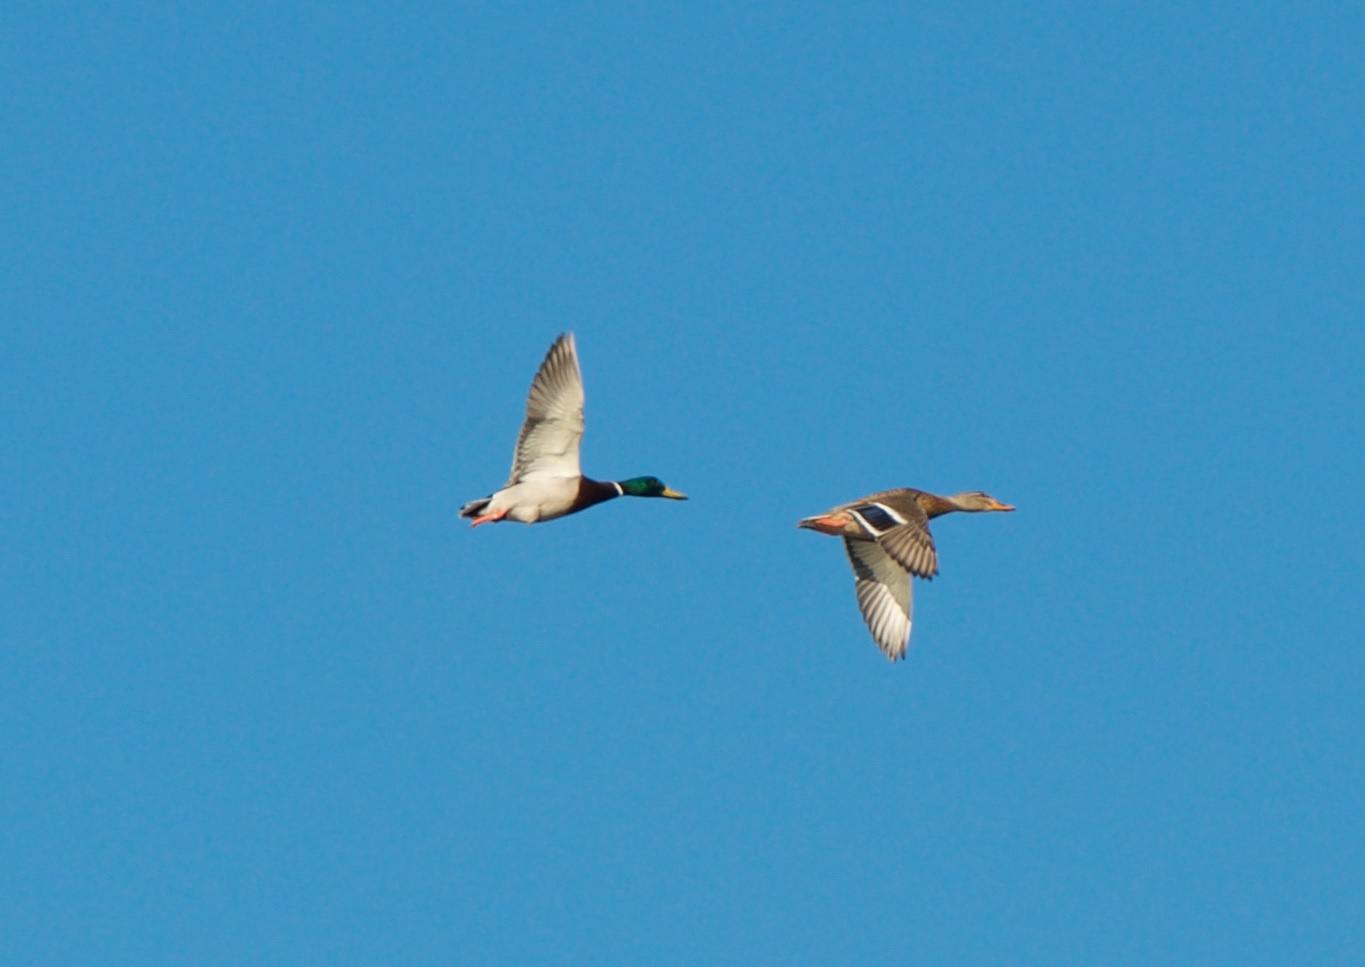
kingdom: Animalia
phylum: Chordata
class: Aves
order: Anseriformes
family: Anatidae
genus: Anas
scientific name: Anas platyrhynchos
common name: Mallard
